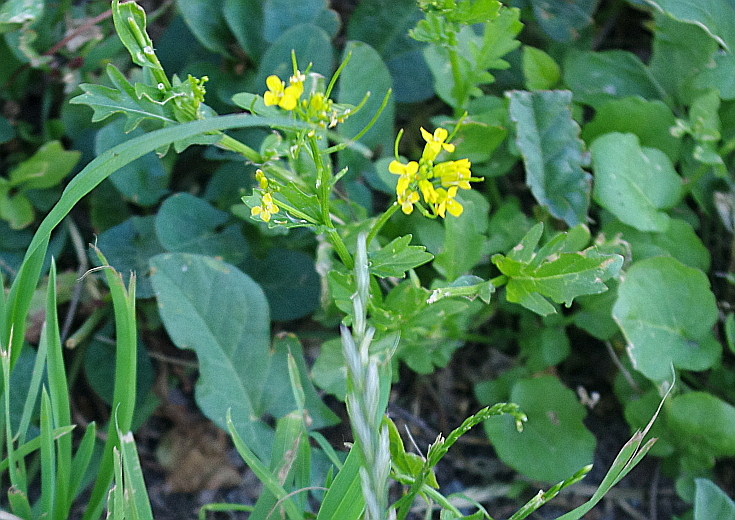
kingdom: Plantae
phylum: Tracheophyta
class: Magnoliopsida
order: Brassicales
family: Brassicaceae
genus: Barbarea
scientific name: Barbarea vulgaris
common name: Cressy-greens
